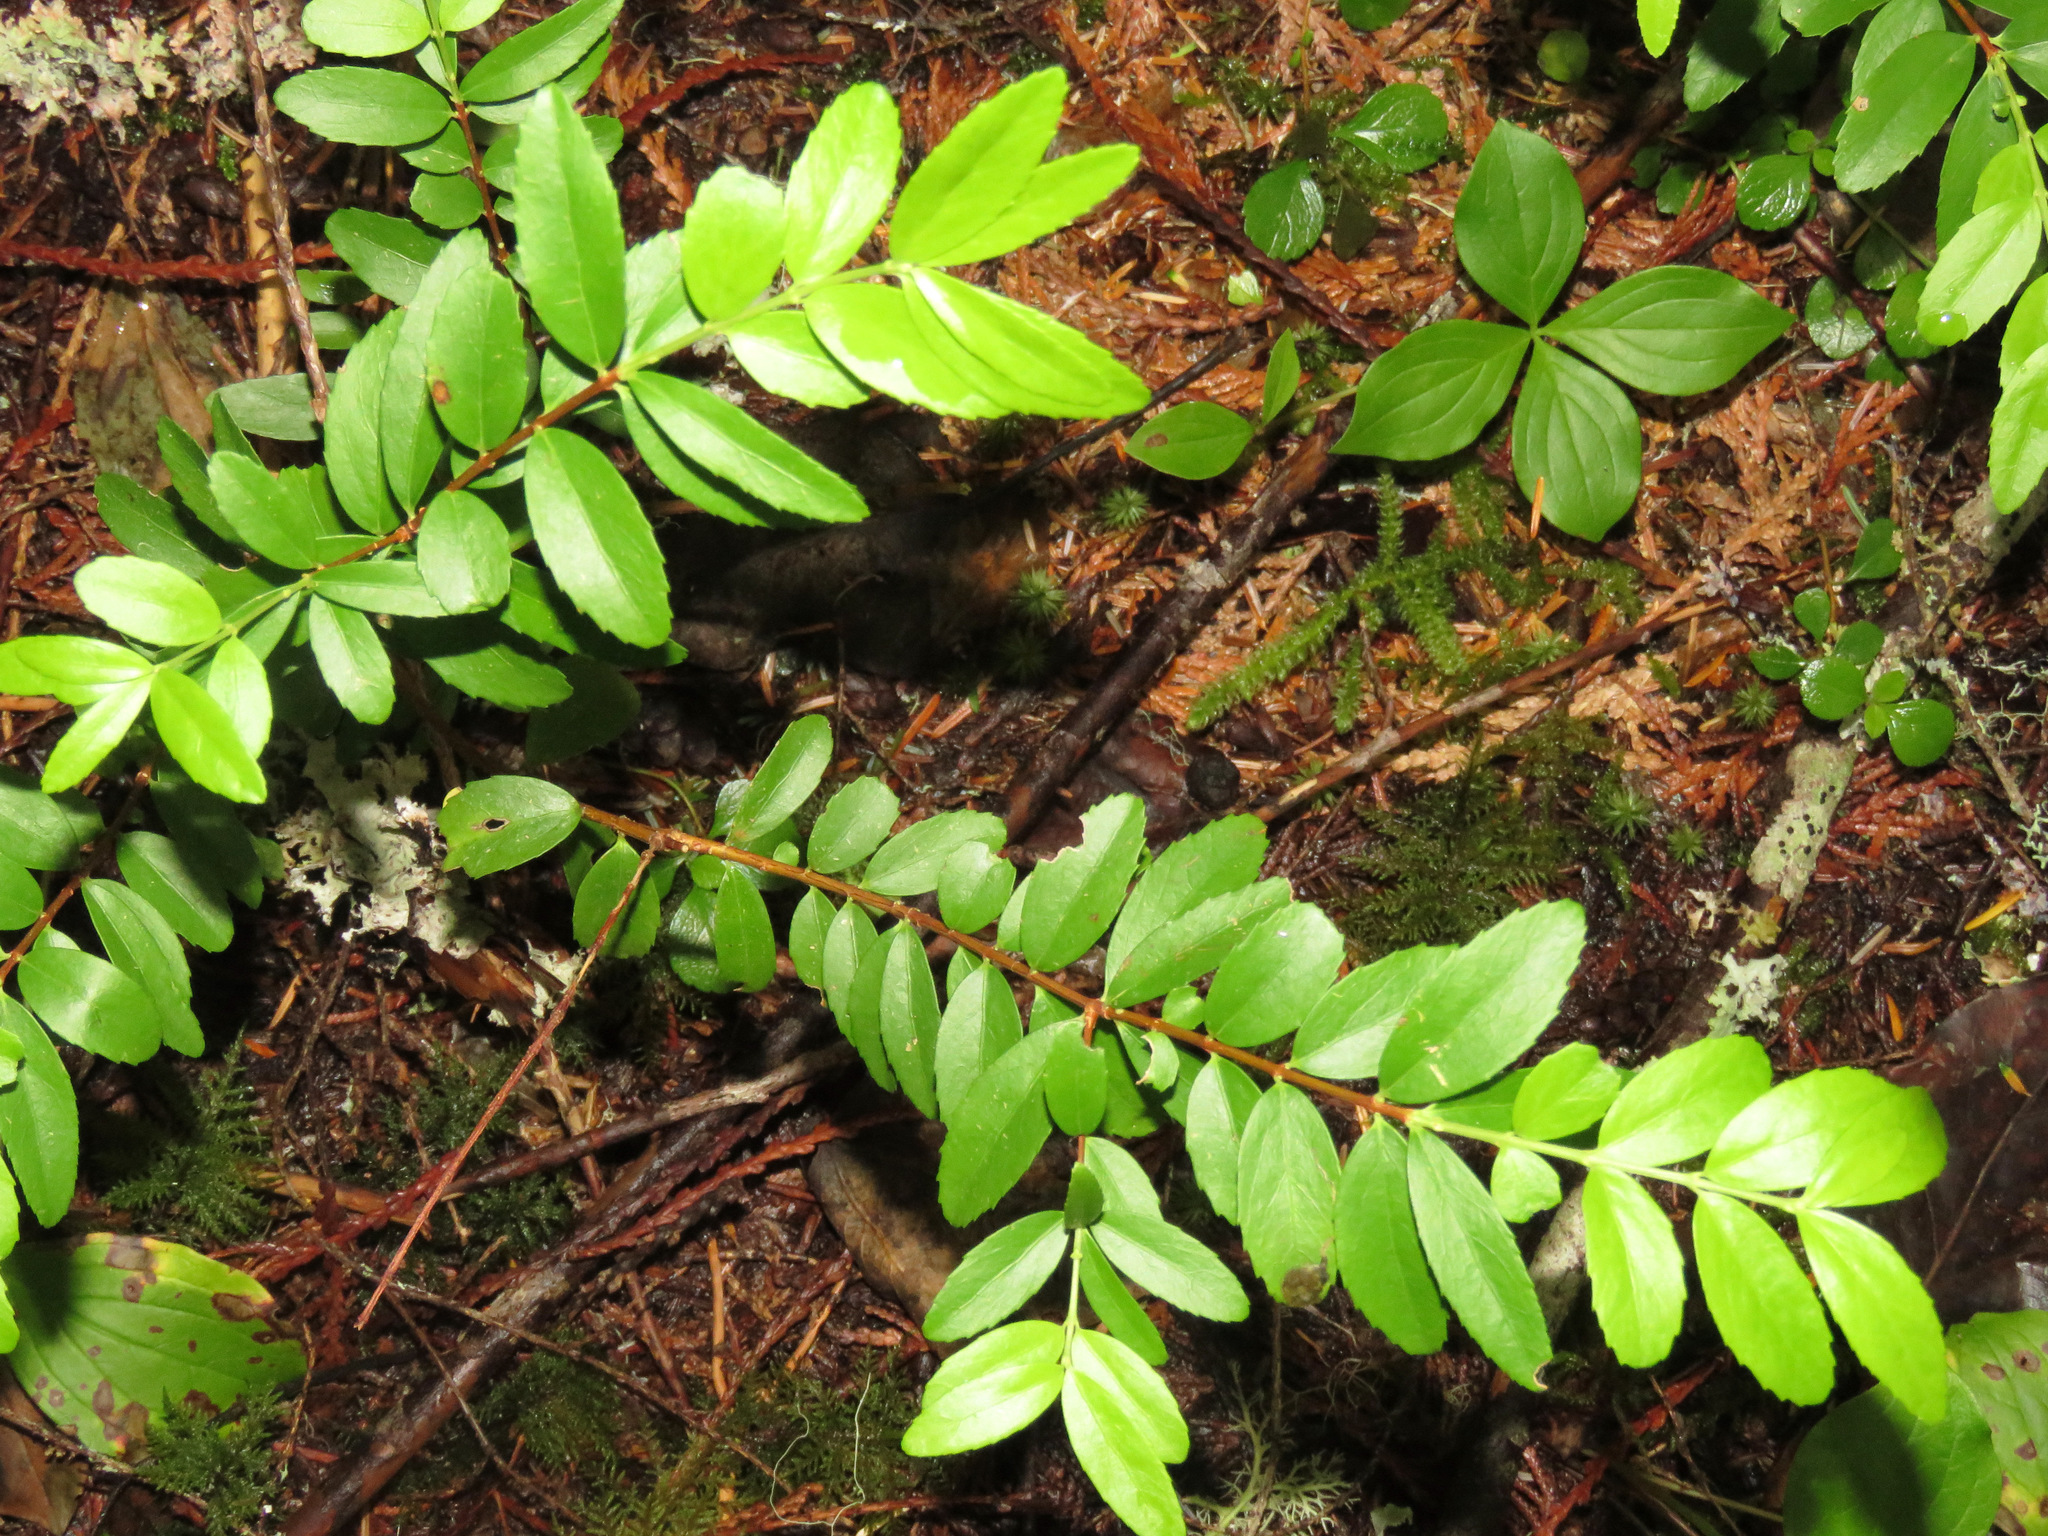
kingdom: Plantae
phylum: Tracheophyta
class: Magnoliopsida
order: Celastrales
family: Celastraceae
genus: Paxistima
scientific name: Paxistima myrsinites
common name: Mountain-lover
